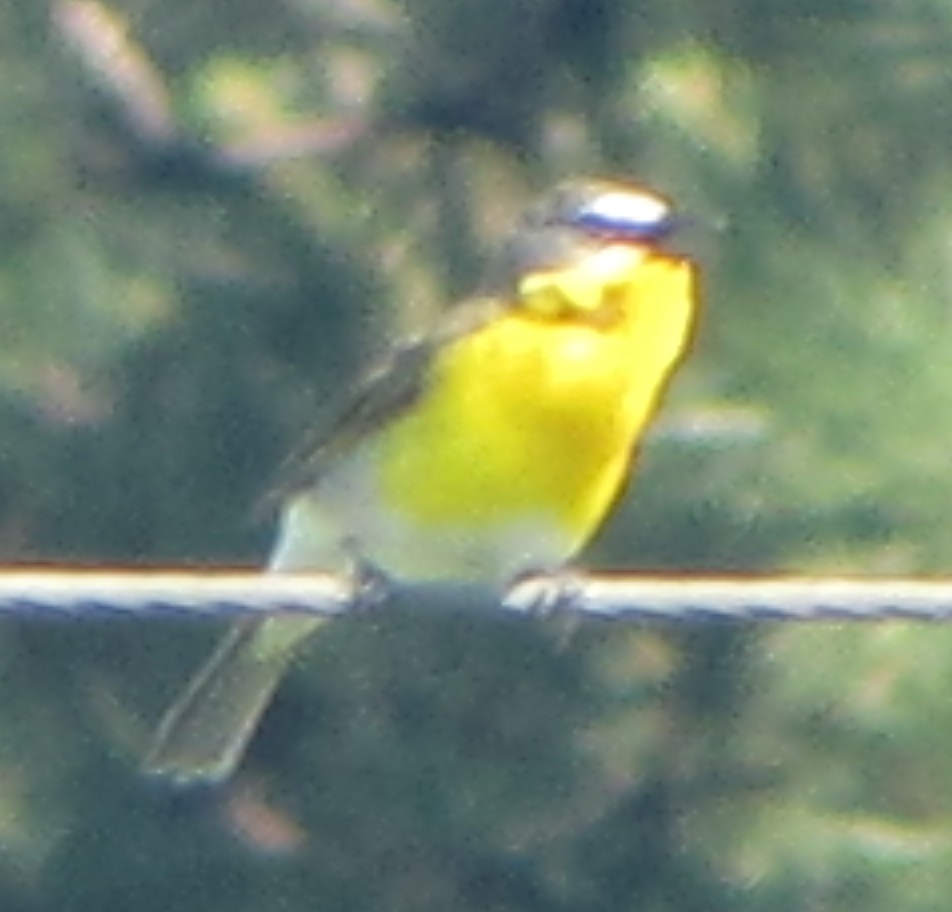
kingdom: Animalia
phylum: Chordata
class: Aves
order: Passeriformes
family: Parulidae
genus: Icteria
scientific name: Icteria virens
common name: Yellow-breasted chat
